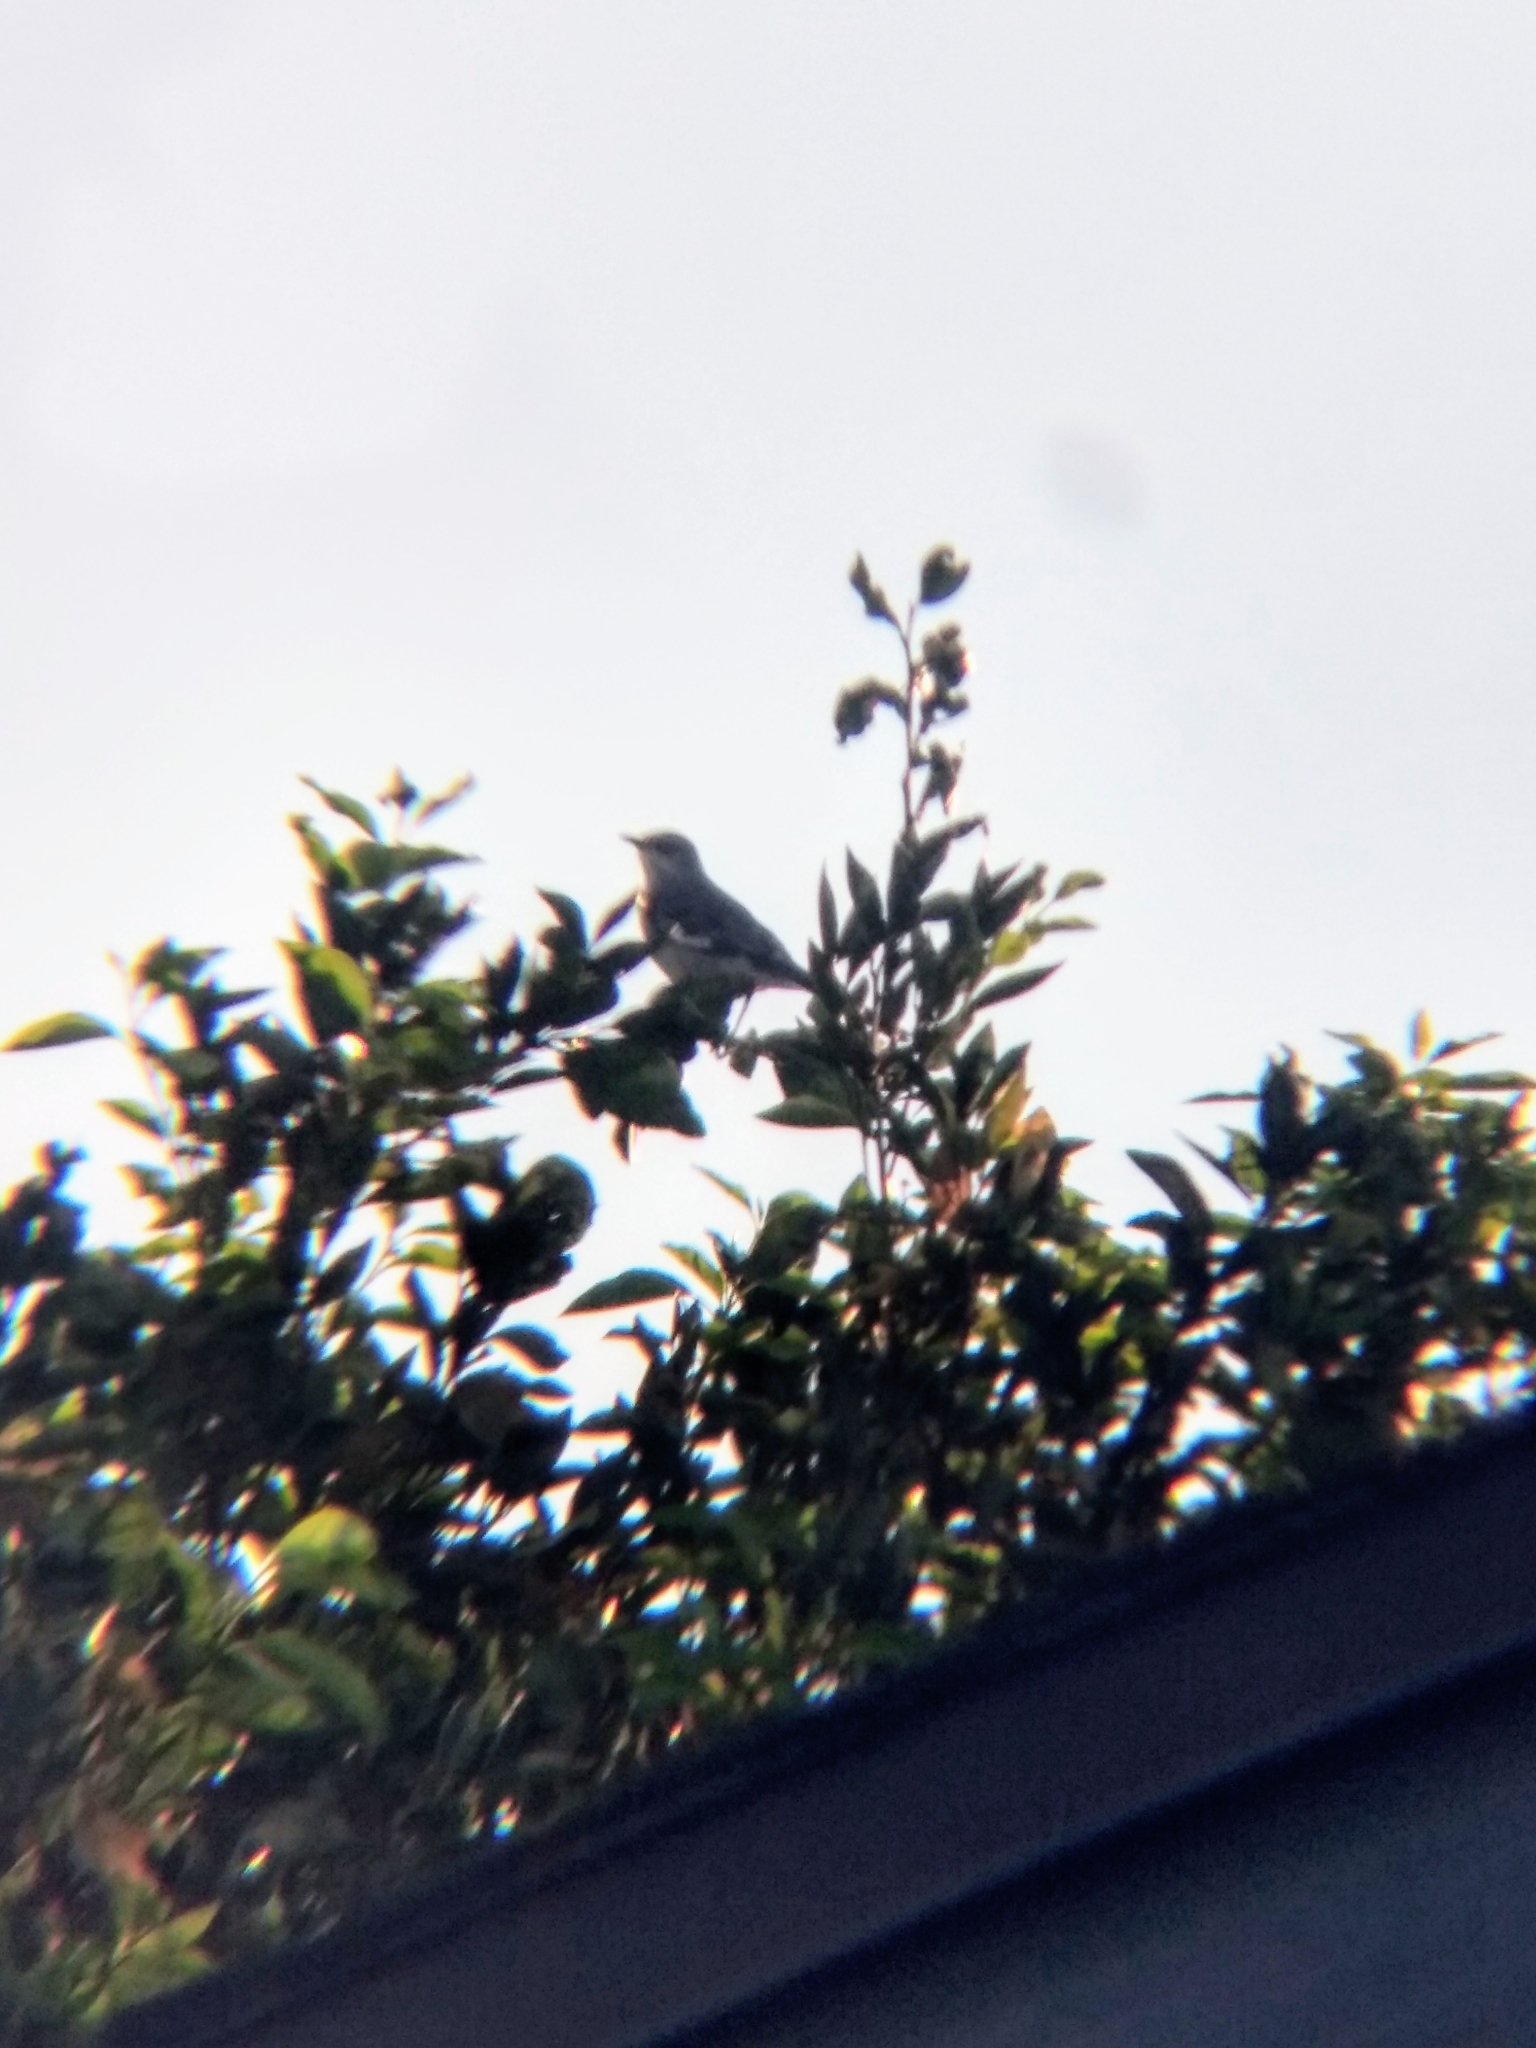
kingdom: Animalia
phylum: Chordata
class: Aves
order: Passeriformes
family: Mimidae
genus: Mimus
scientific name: Mimus polyglottos
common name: Northern mockingbird
